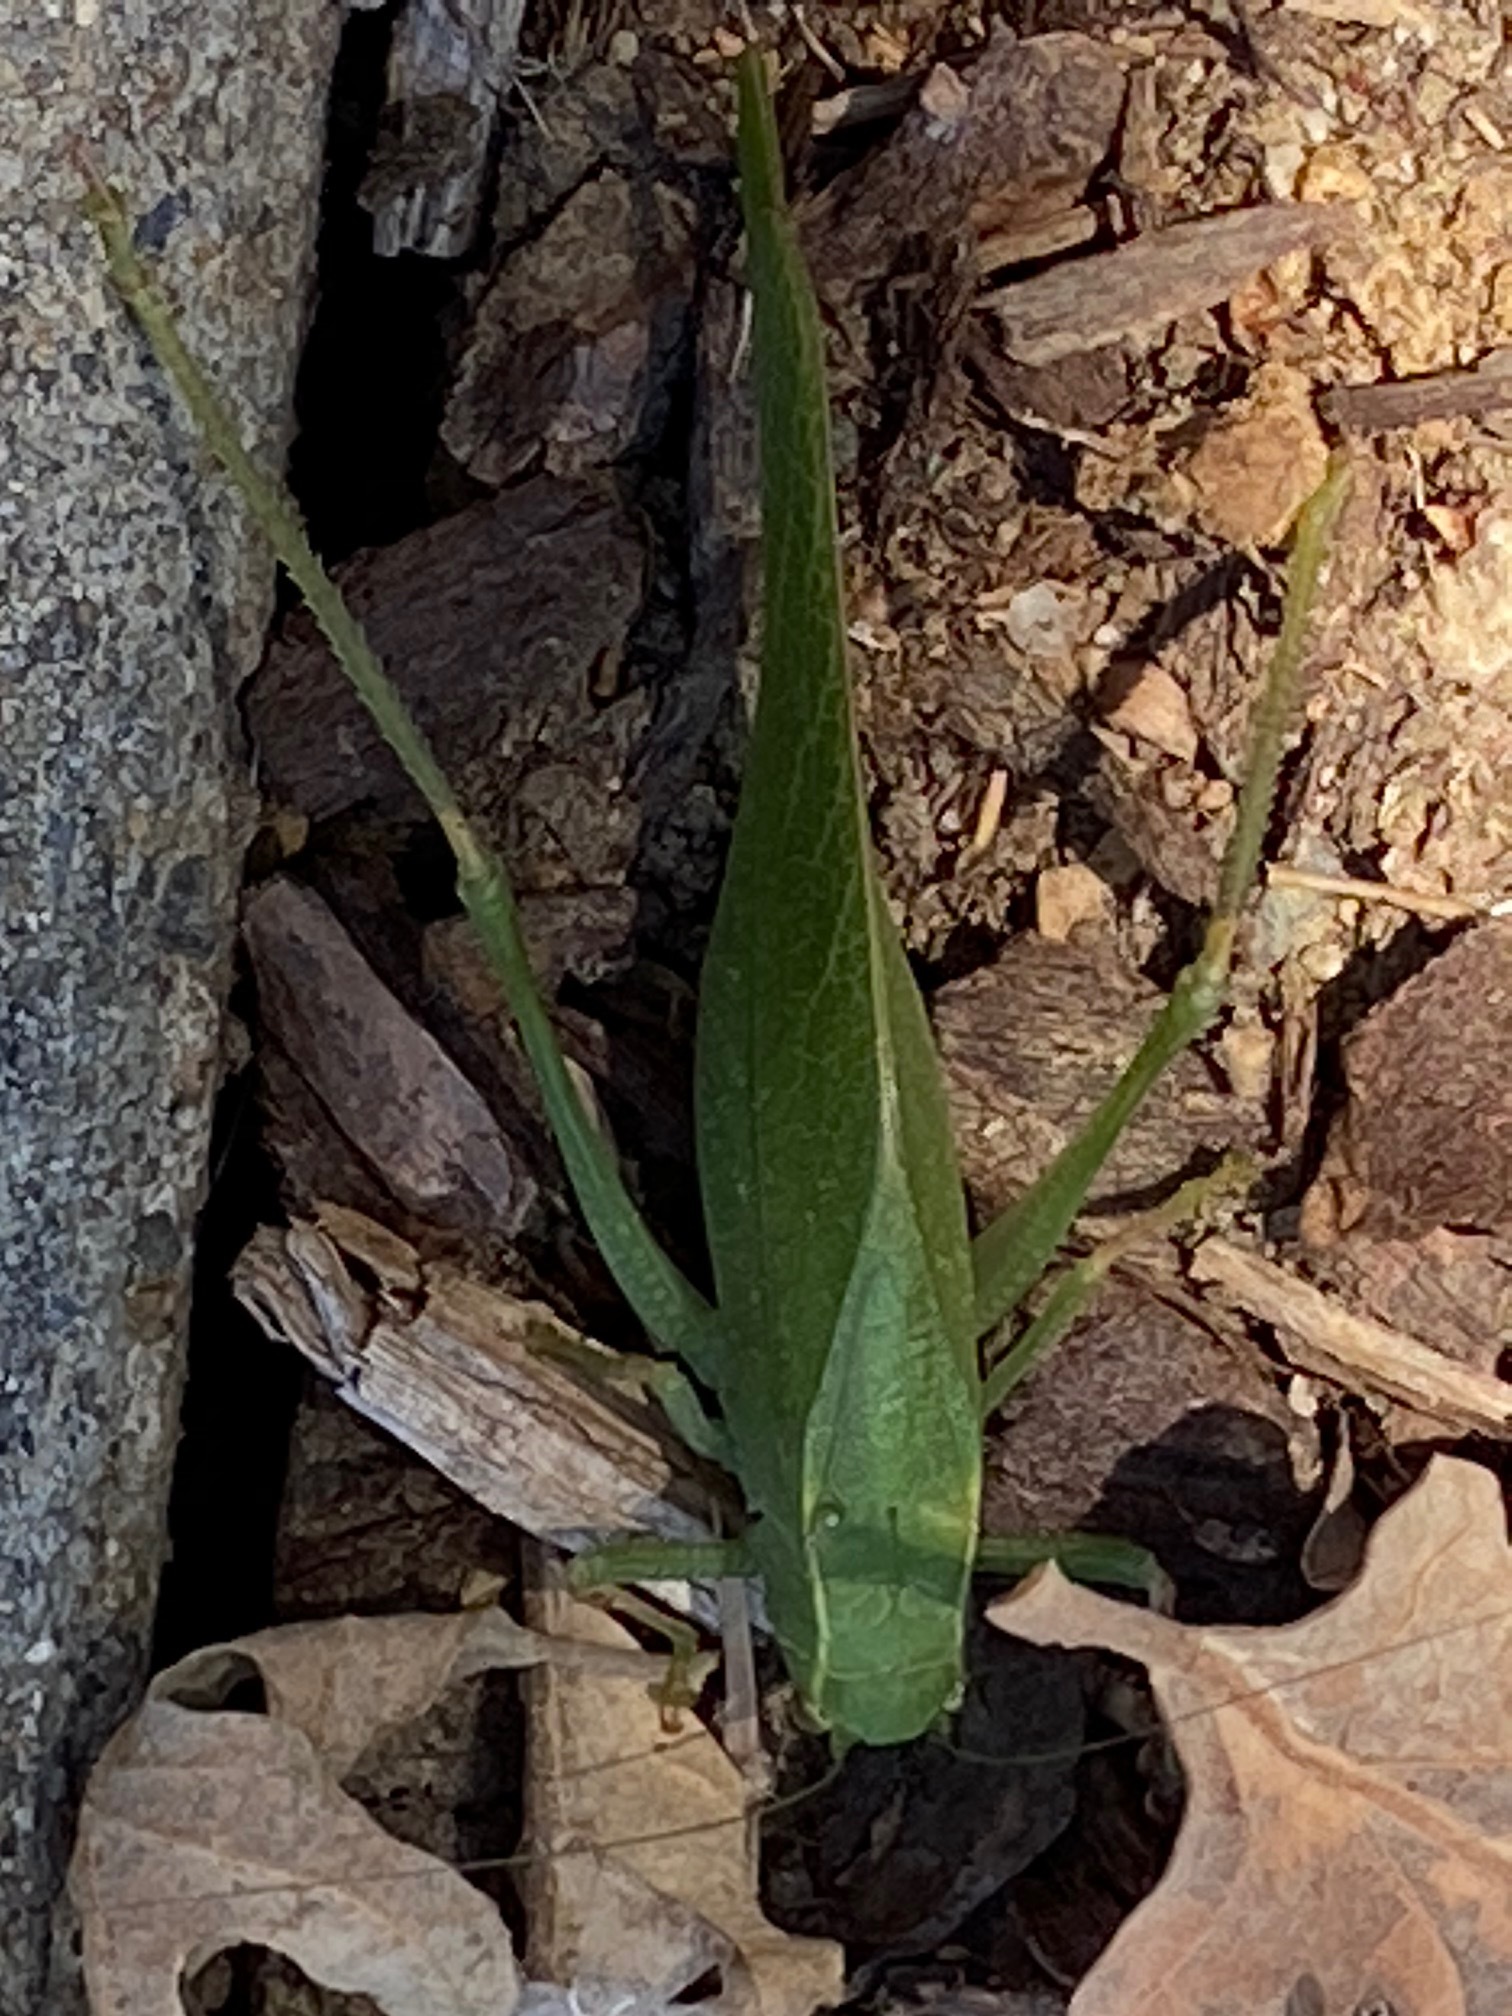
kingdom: Animalia
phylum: Arthropoda
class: Insecta
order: Orthoptera
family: Tettigoniidae
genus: Microcentrum
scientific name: Microcentrum californicum
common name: California angle-wing
